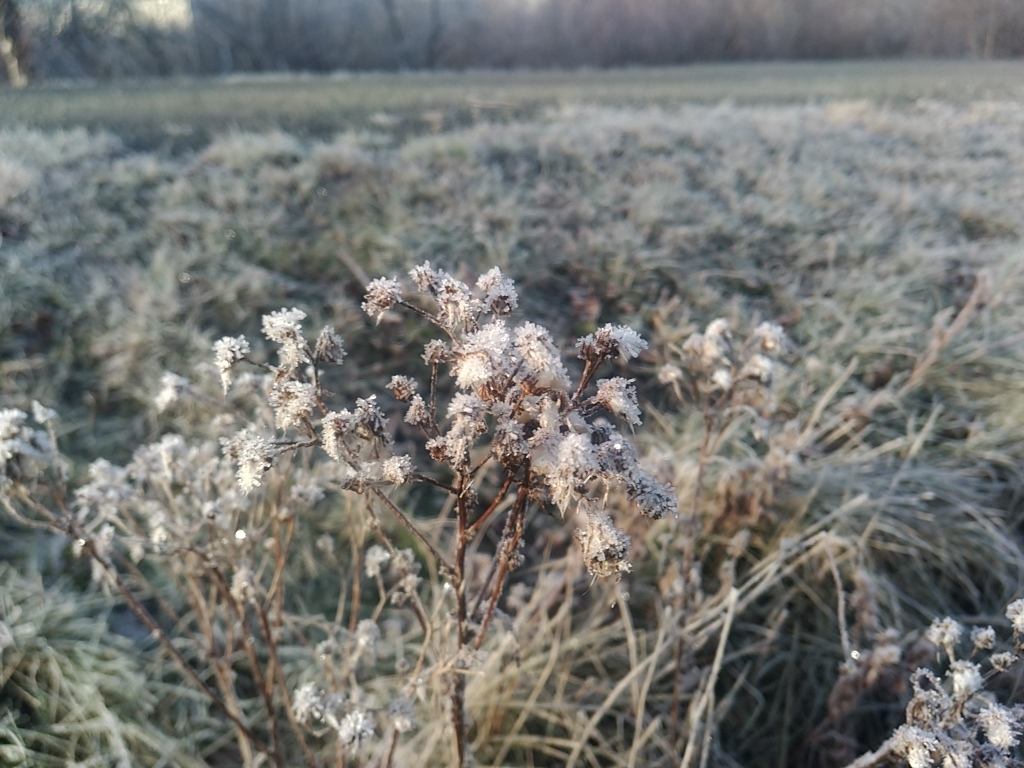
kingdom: Plantae
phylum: Tracheophyta
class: Magnoliopsida
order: Asterales
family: Asteraceae
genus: Anaphalis
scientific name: Anaphalis margaritacea
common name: Pearly everlasting
